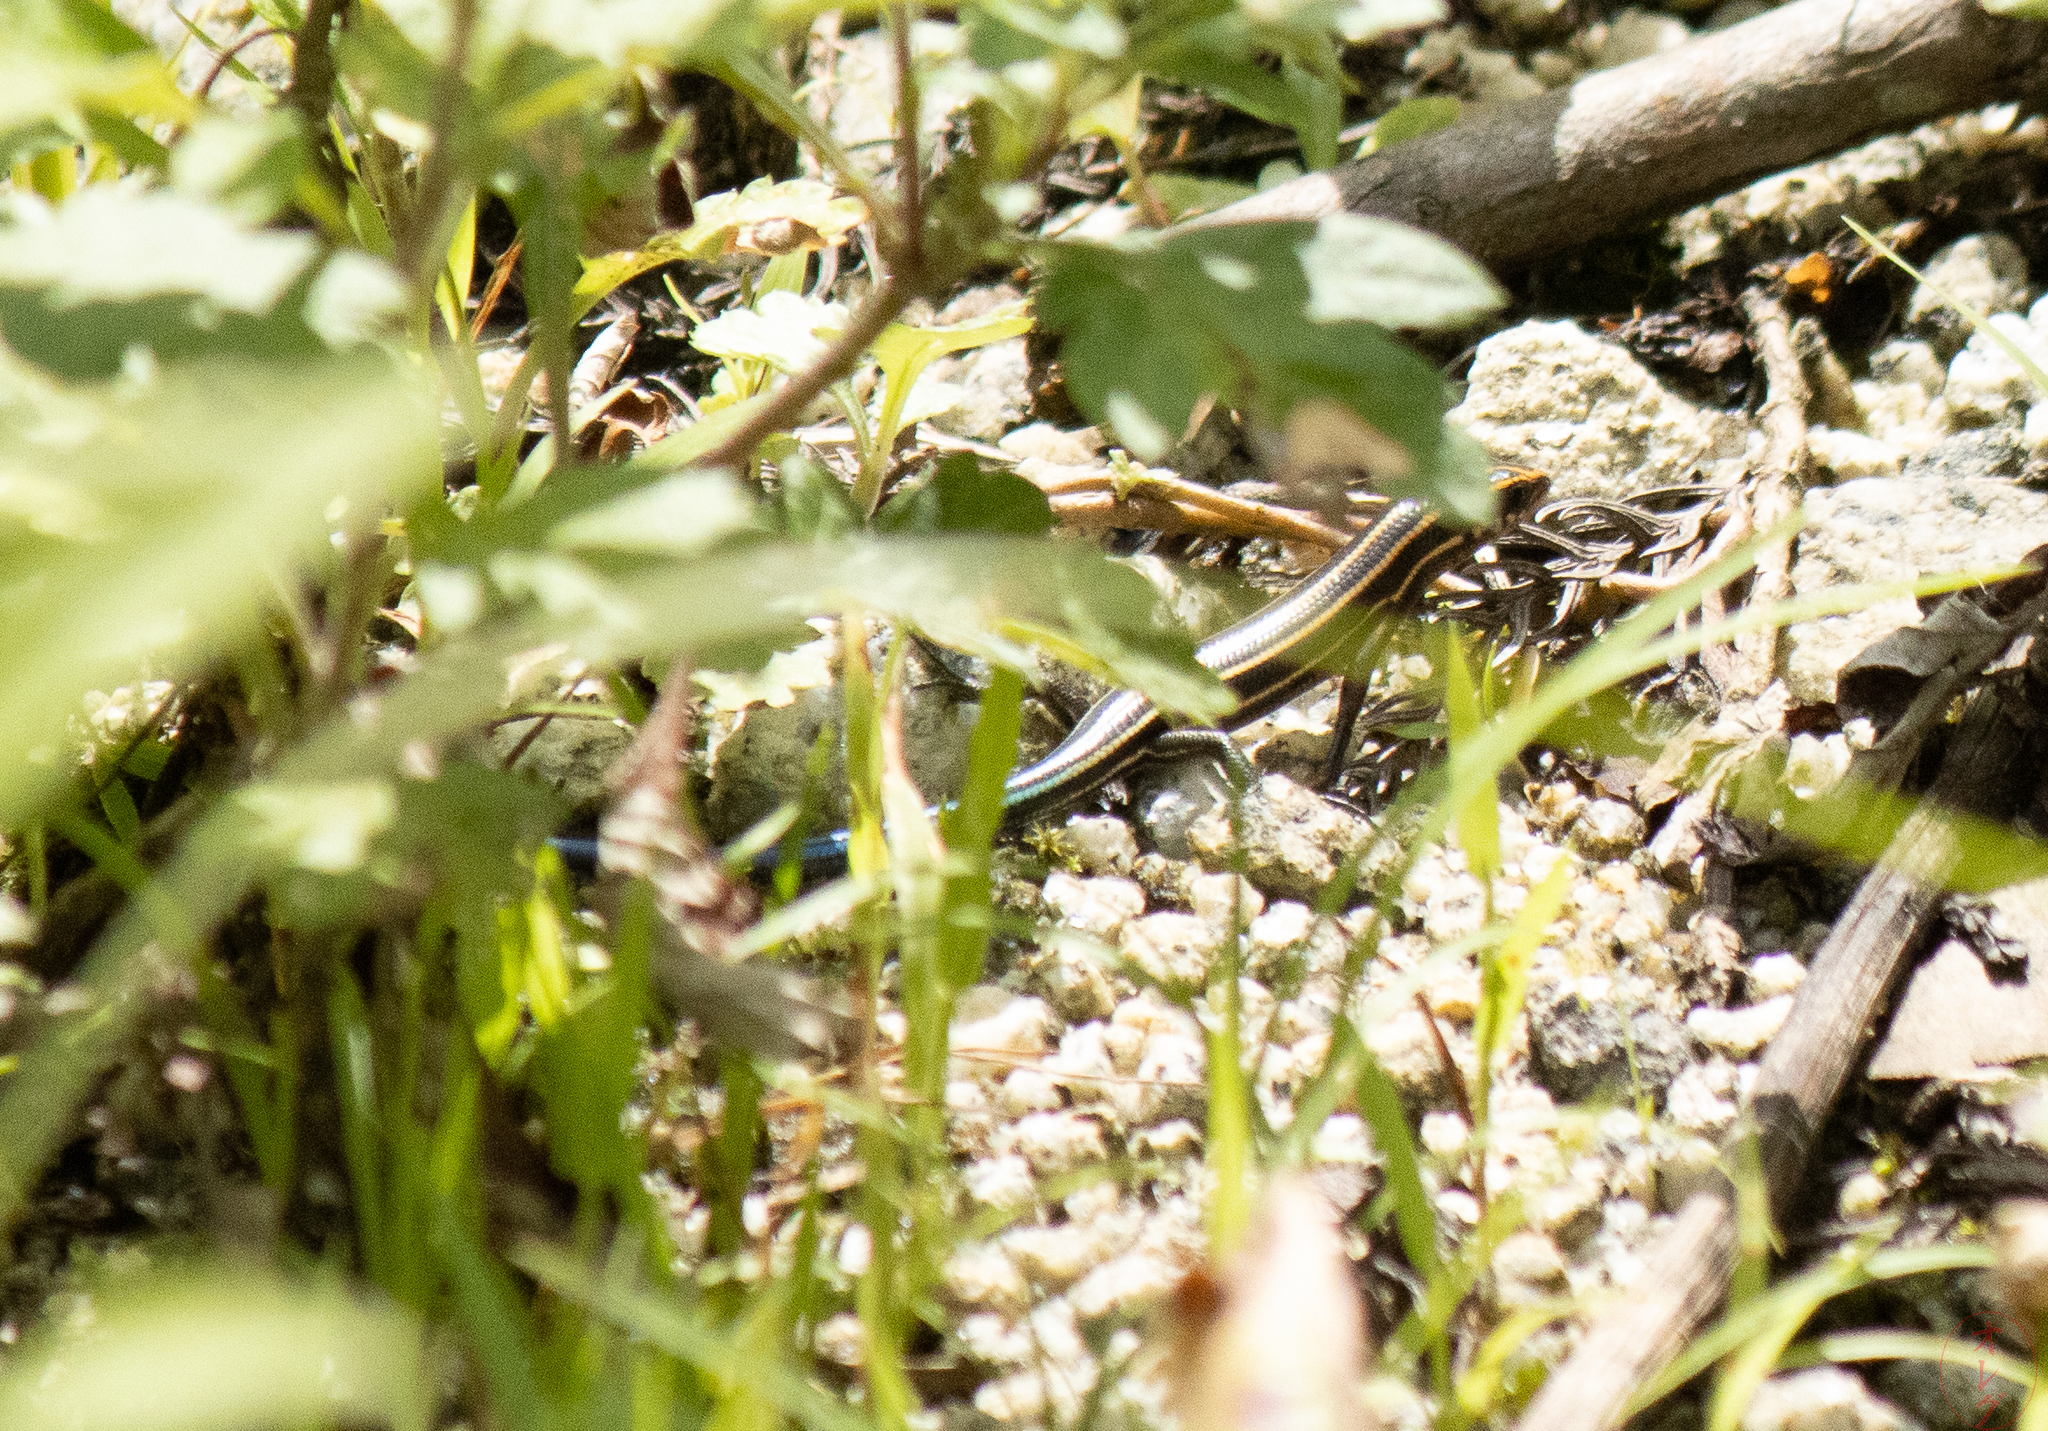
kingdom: Animalia
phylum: Chordata
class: Squamata
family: Scincidae
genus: Plestiodon
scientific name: Plestiodon finitimus
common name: Far eastern skink
